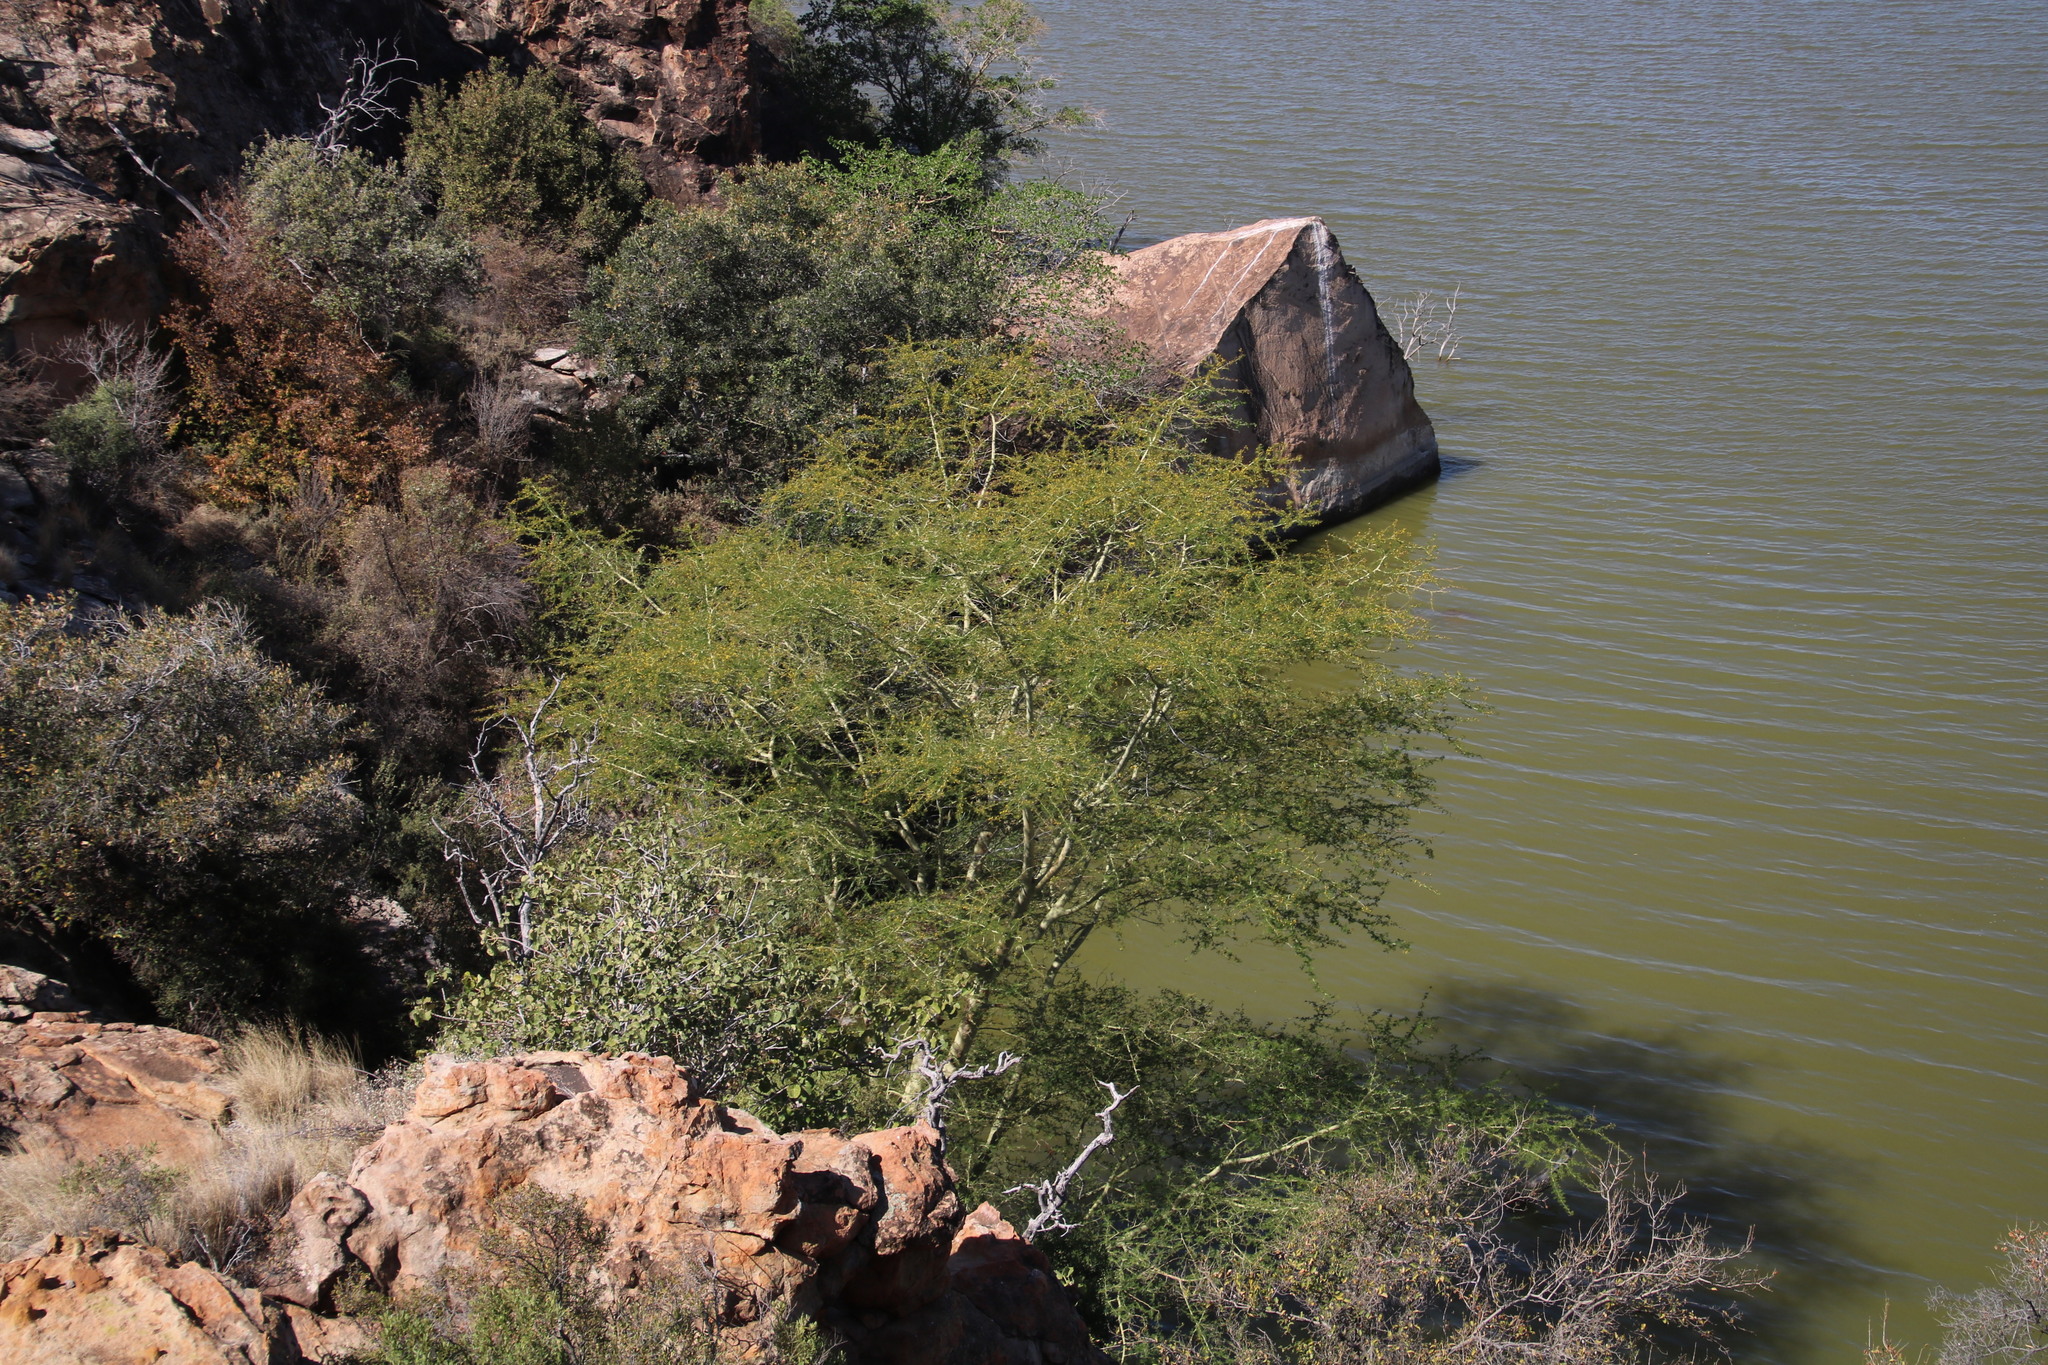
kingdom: Plantae
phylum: Tracheophyta
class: Magnoliopsida
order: Fabales
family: Fabaceae
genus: Vachellia
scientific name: Vachellia xanthophloea
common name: Fever tree
